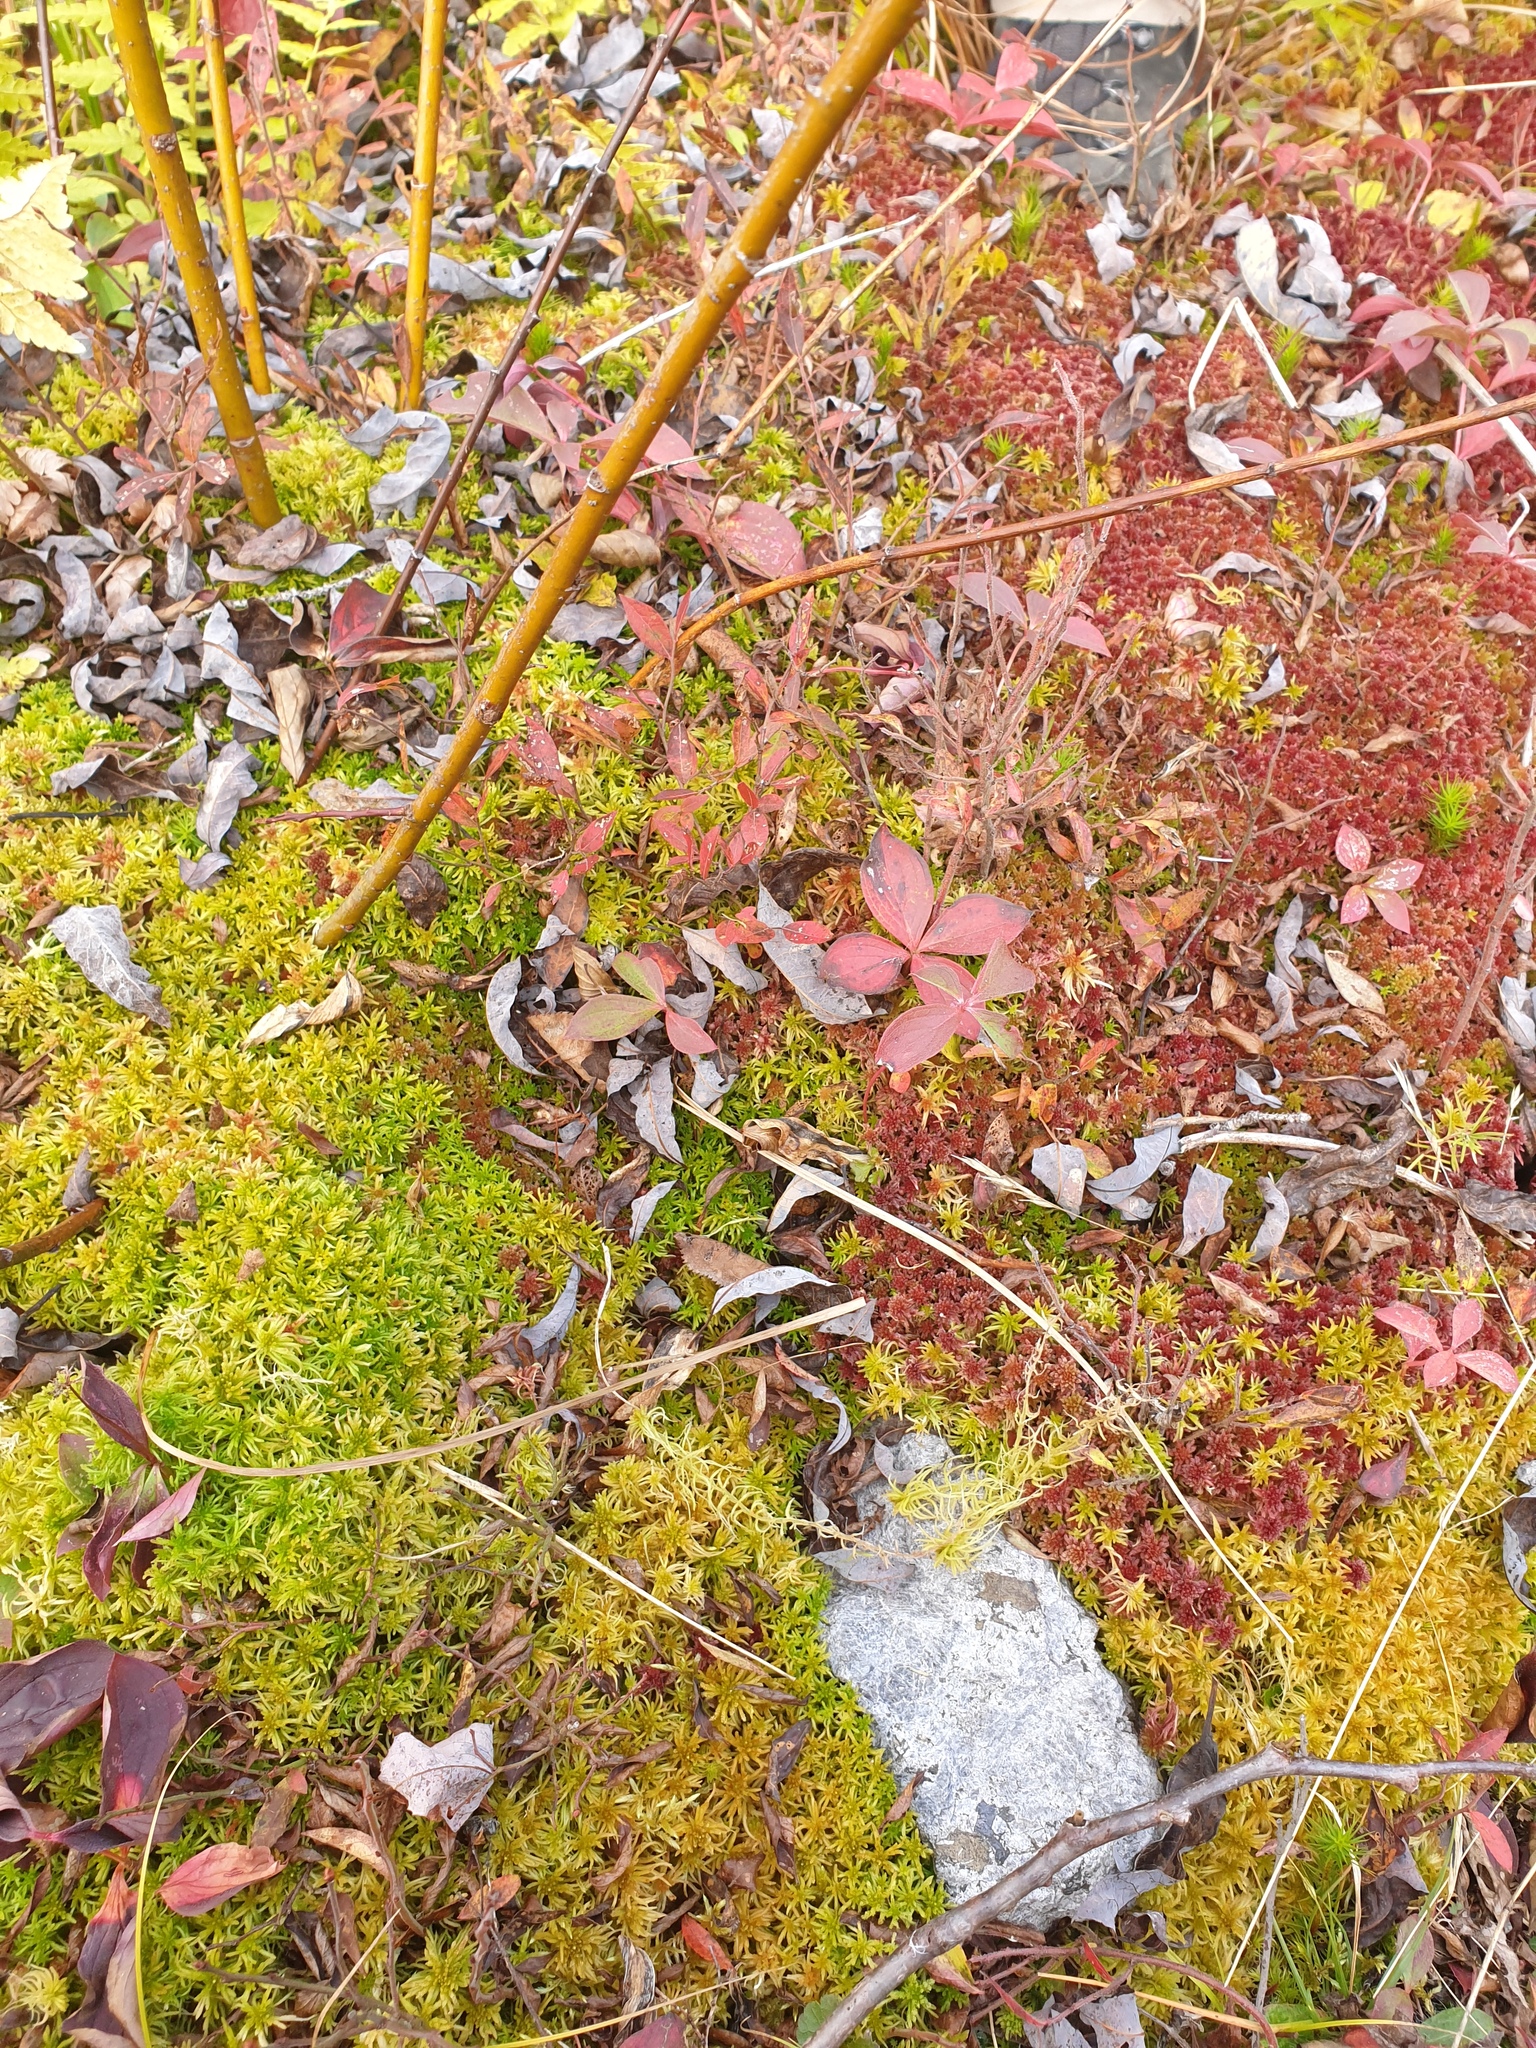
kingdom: Plantae
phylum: Bryophyta
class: Sphagnopsida
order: Sphagnales
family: Sphagnaceae
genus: Sphagnum
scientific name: Sphagnum capillifolium
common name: Small red peat moss
